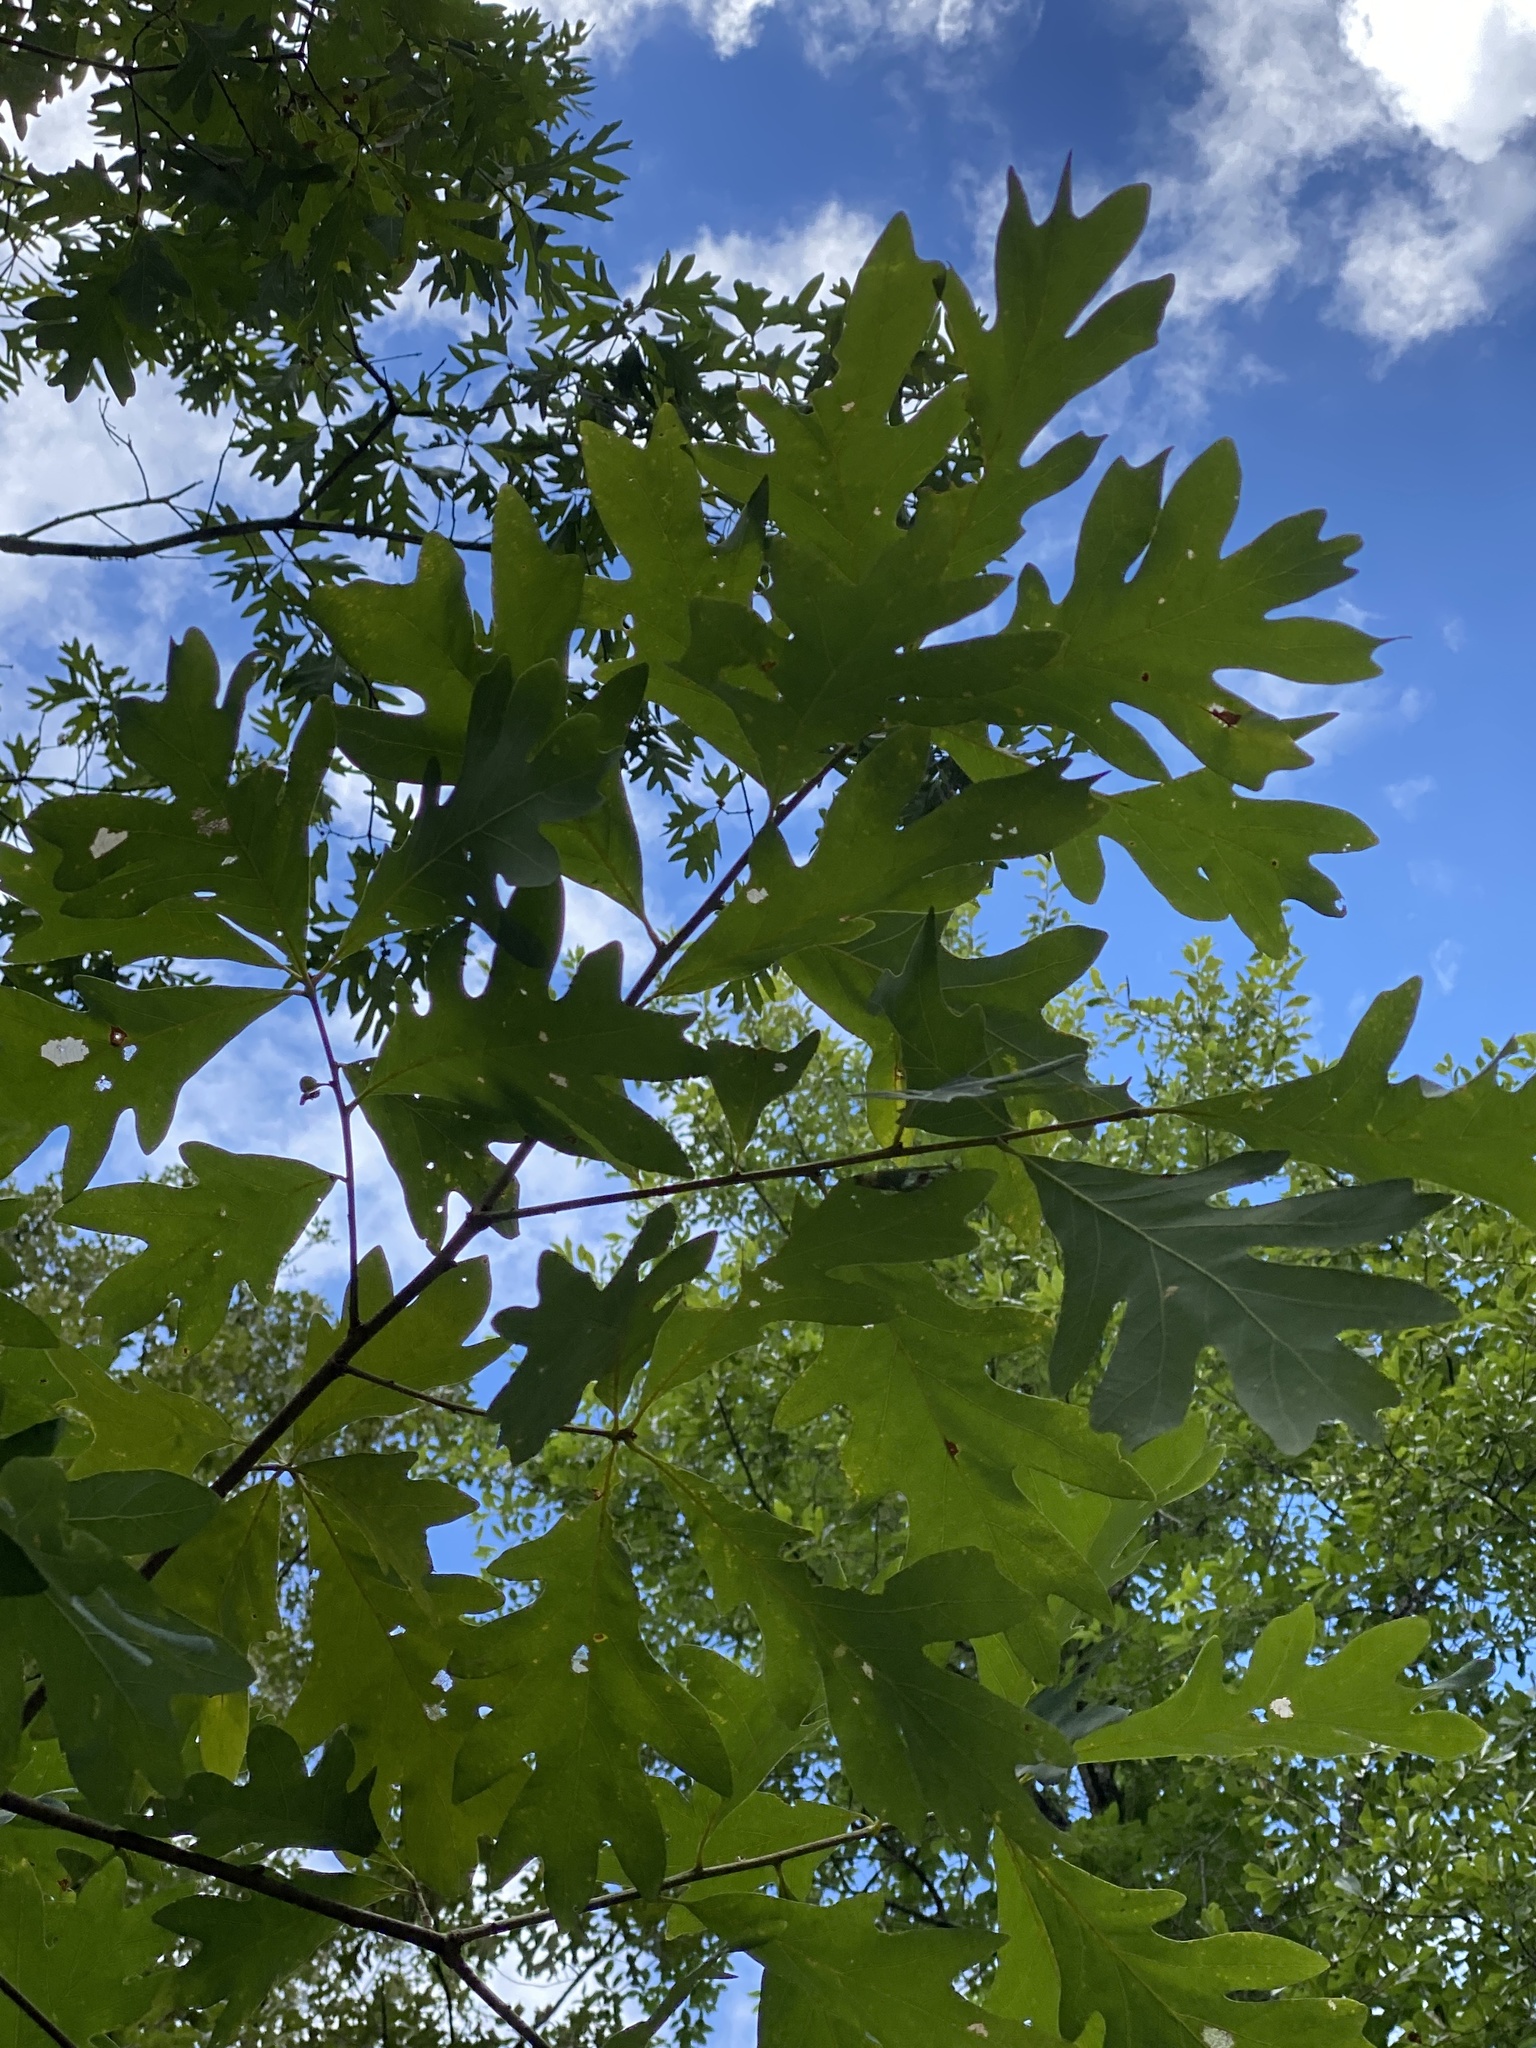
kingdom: Plantae
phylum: Tracheophyta
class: Magnoliopsida
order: Fagales
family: Fagaceae
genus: Quercus
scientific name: Quercus alba
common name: White oak
